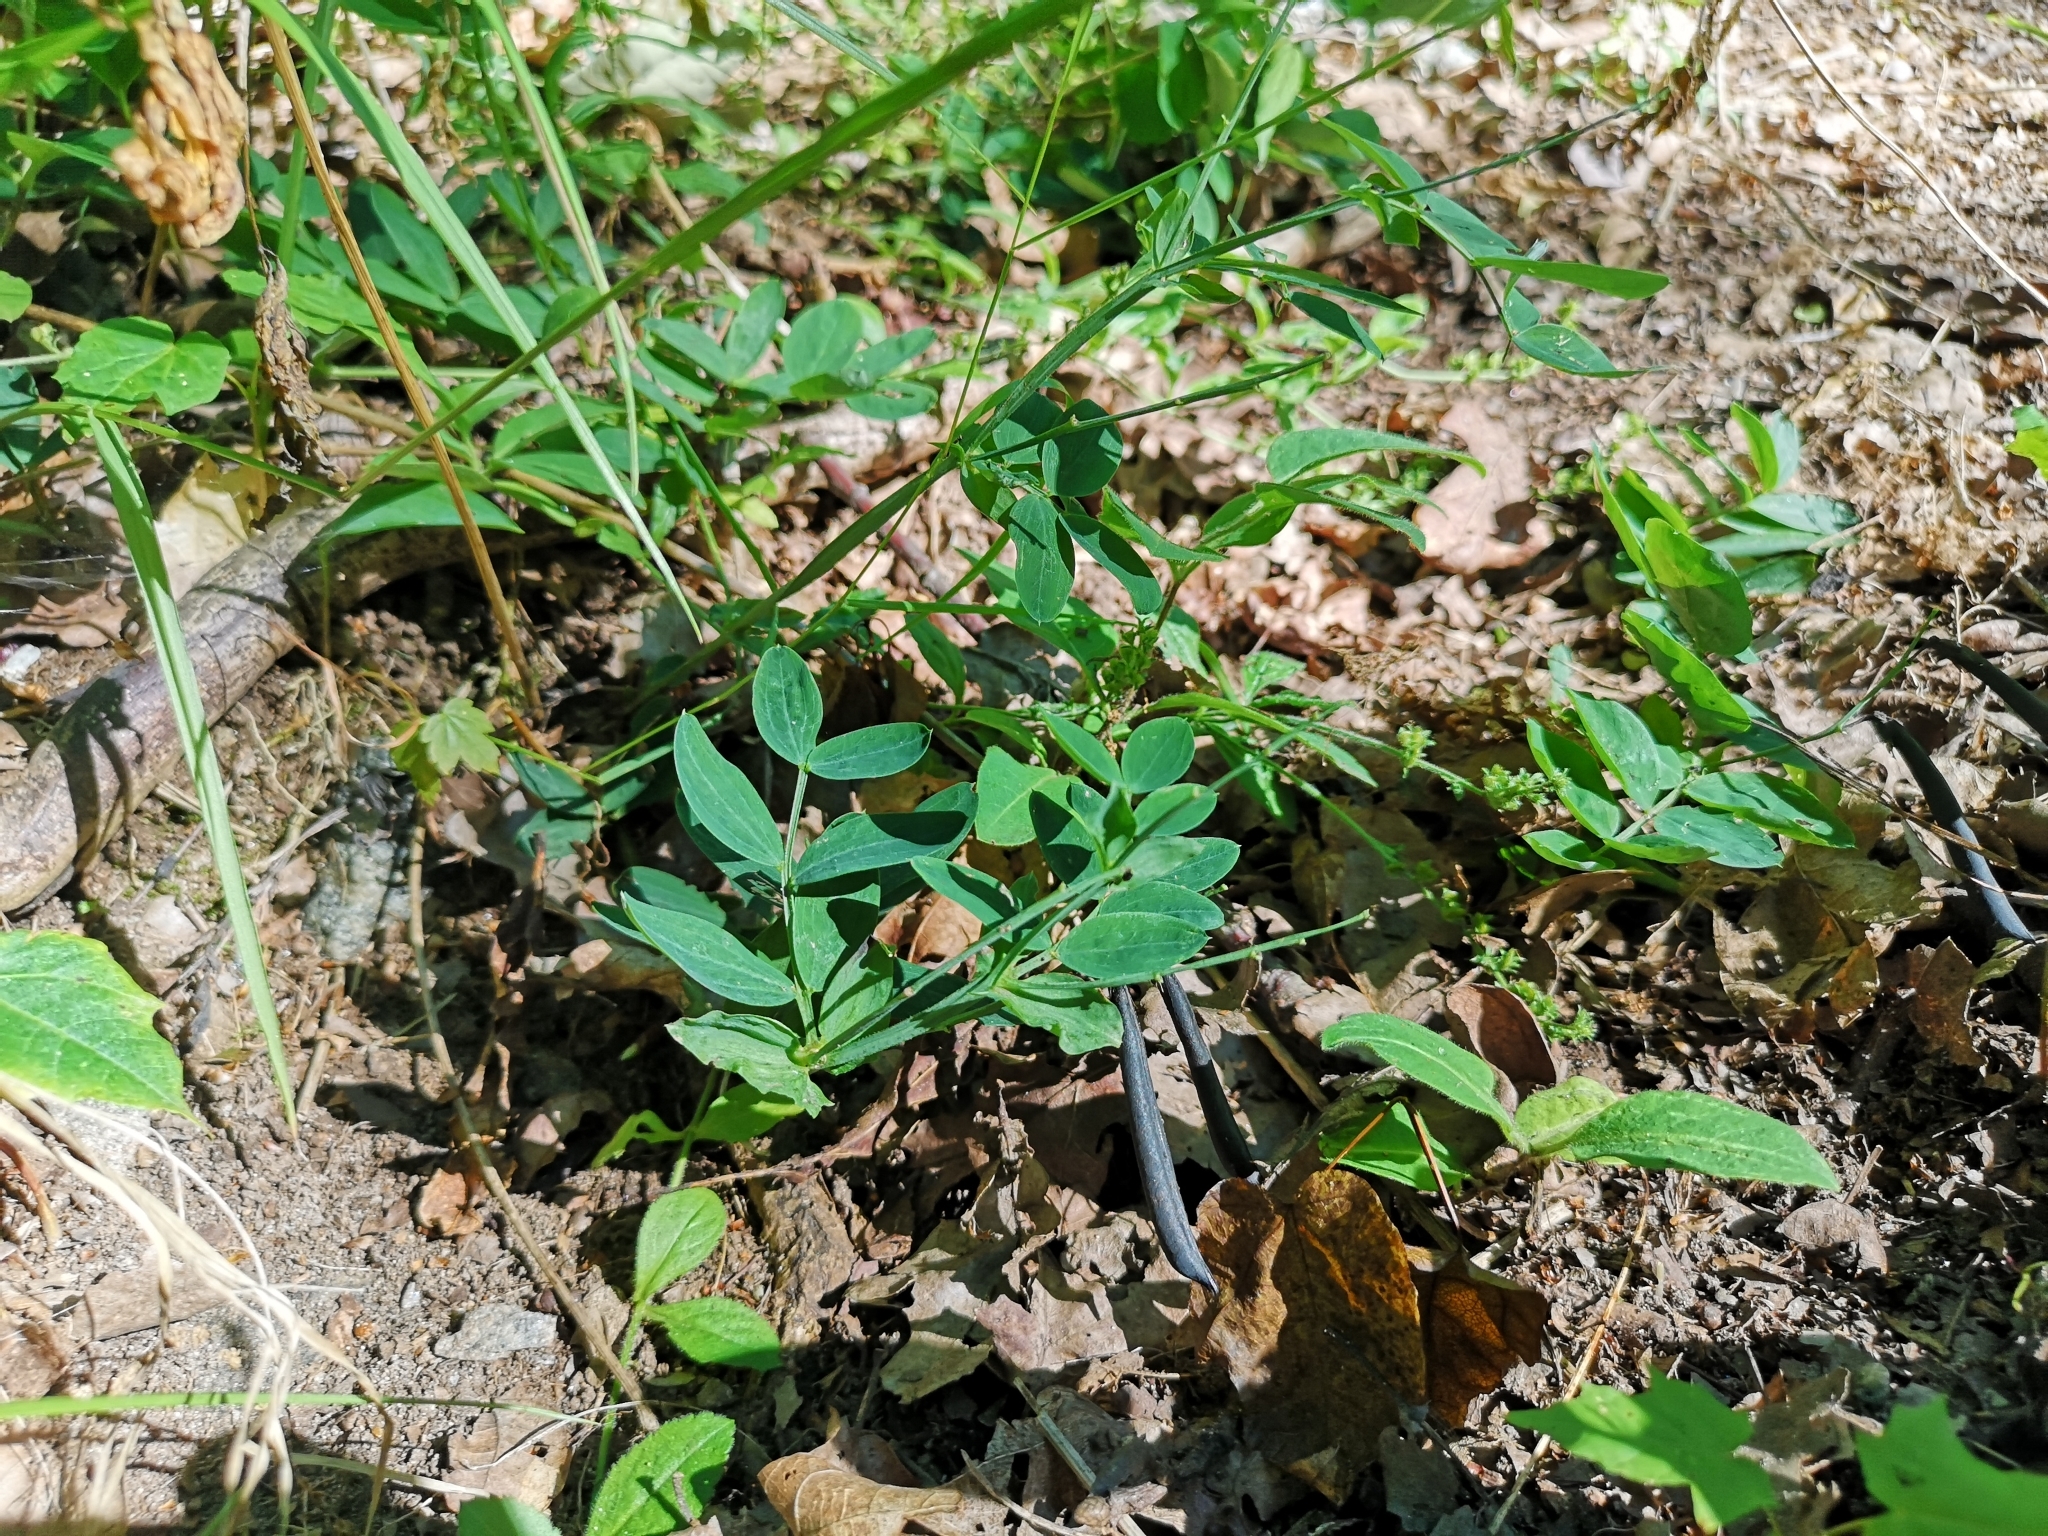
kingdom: Plantae
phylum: Tracheophyta
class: Magnoliopsida
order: Fabales
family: Fabaceae
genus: Lathyrus
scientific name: Lathyrus linifolius
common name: Bitter-vetch
